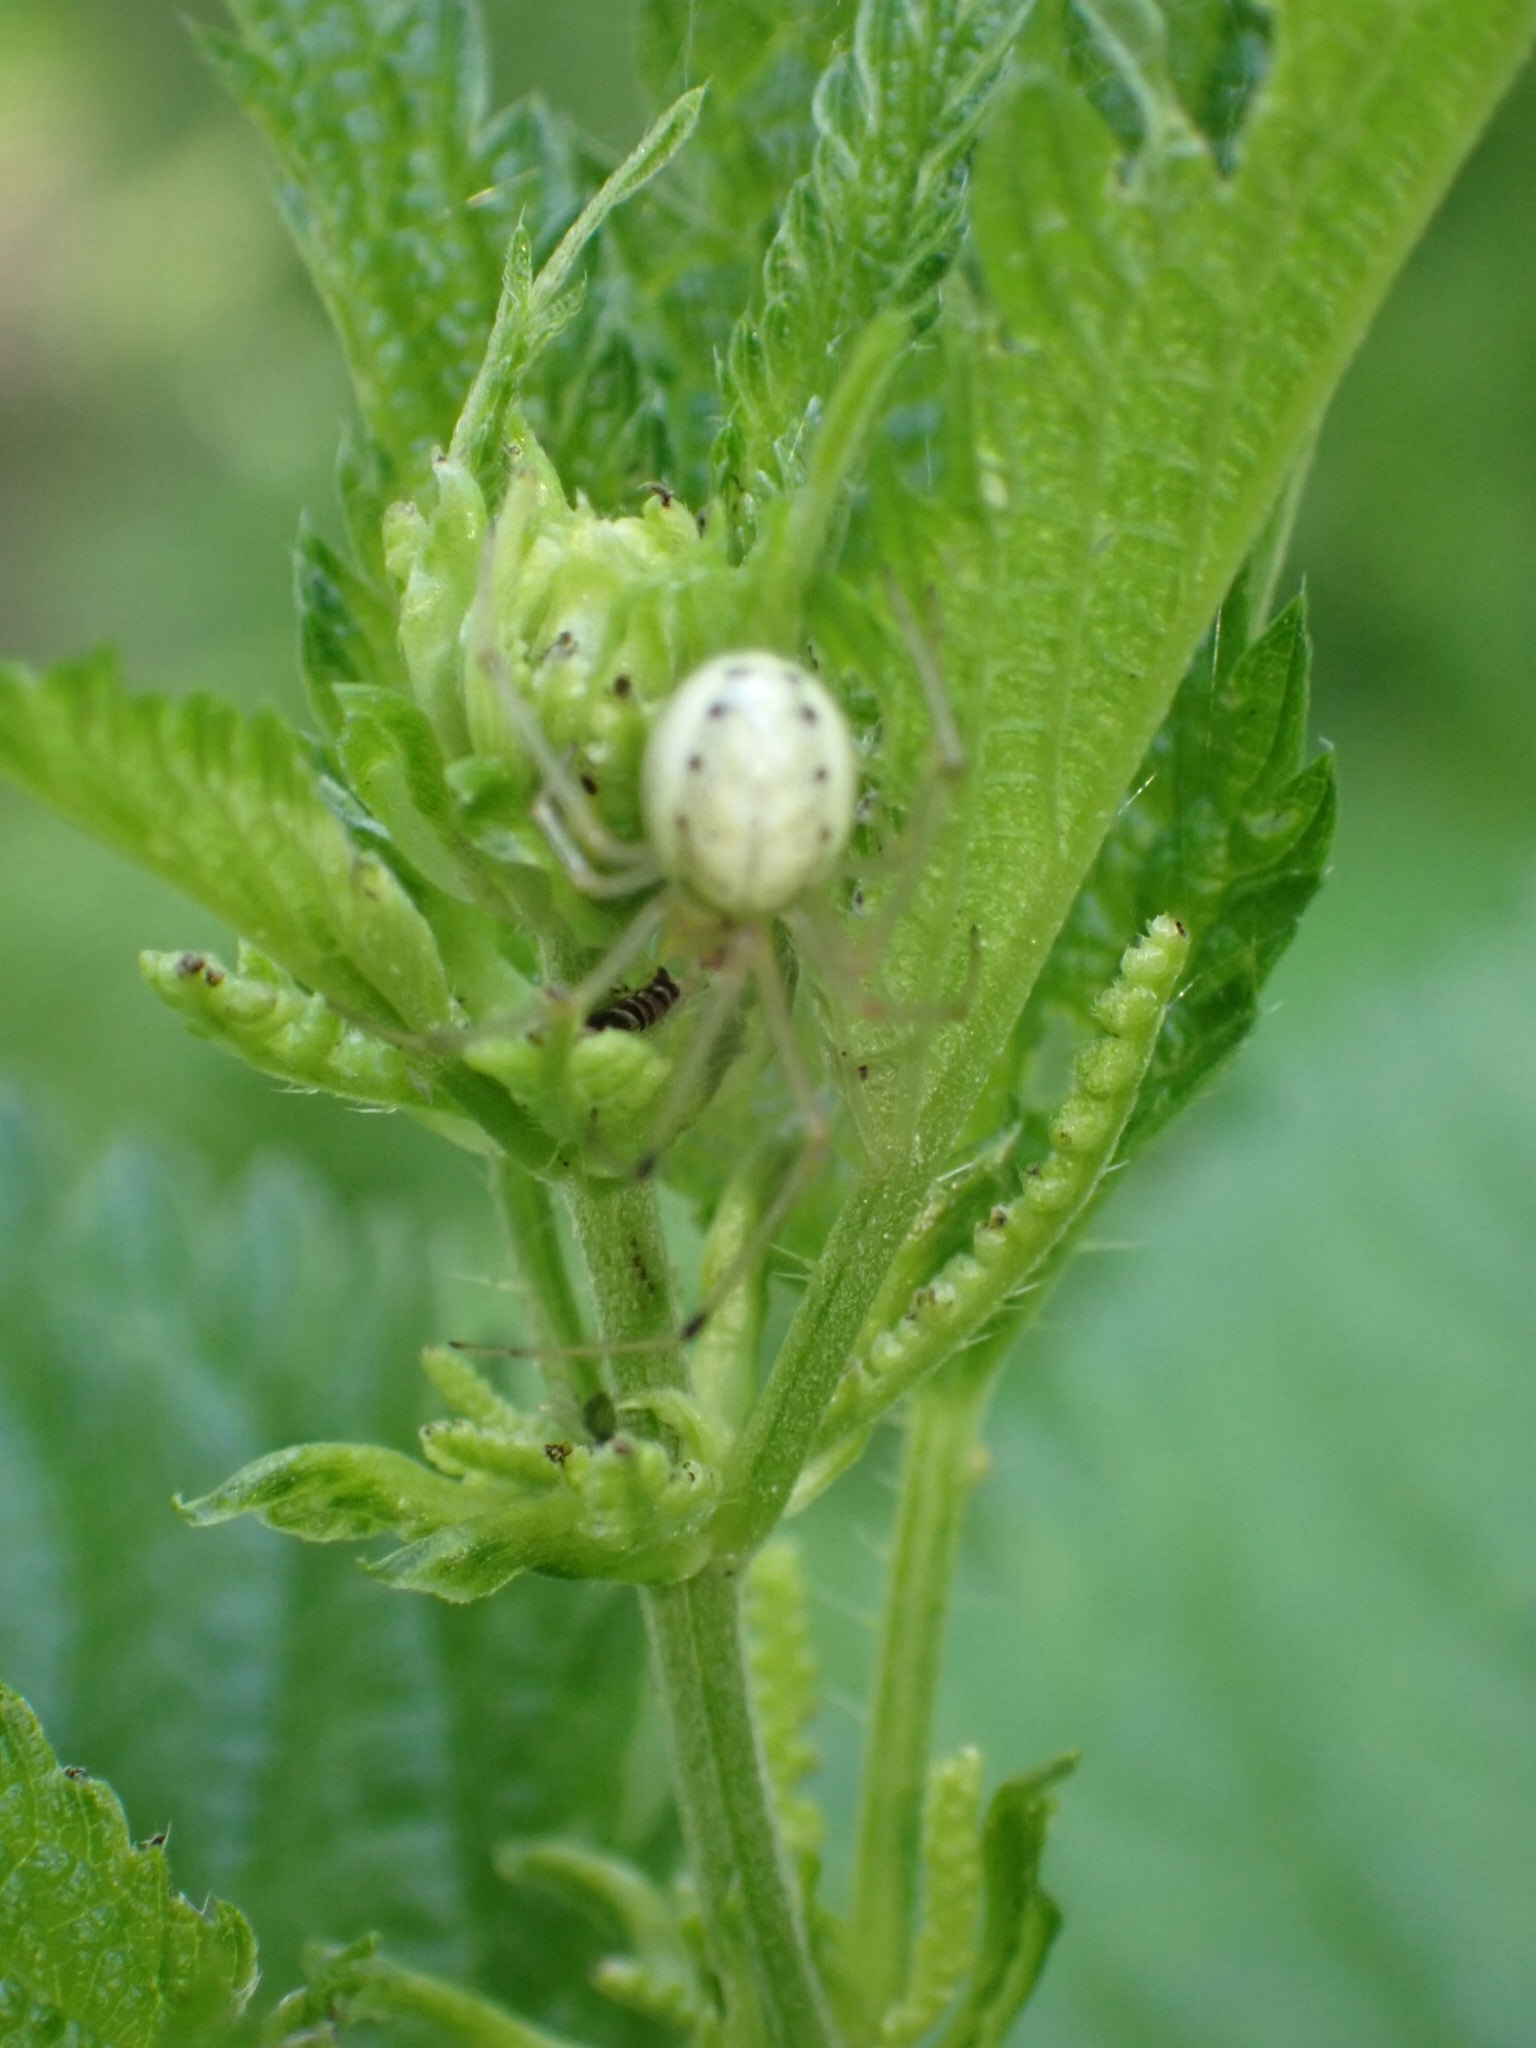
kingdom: Animalia
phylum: Arthropoda
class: Arachnida
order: Araneae
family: Theridiidae
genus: Enoplognatha
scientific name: Enoplognatha ovata
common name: Common candy-striped spider
